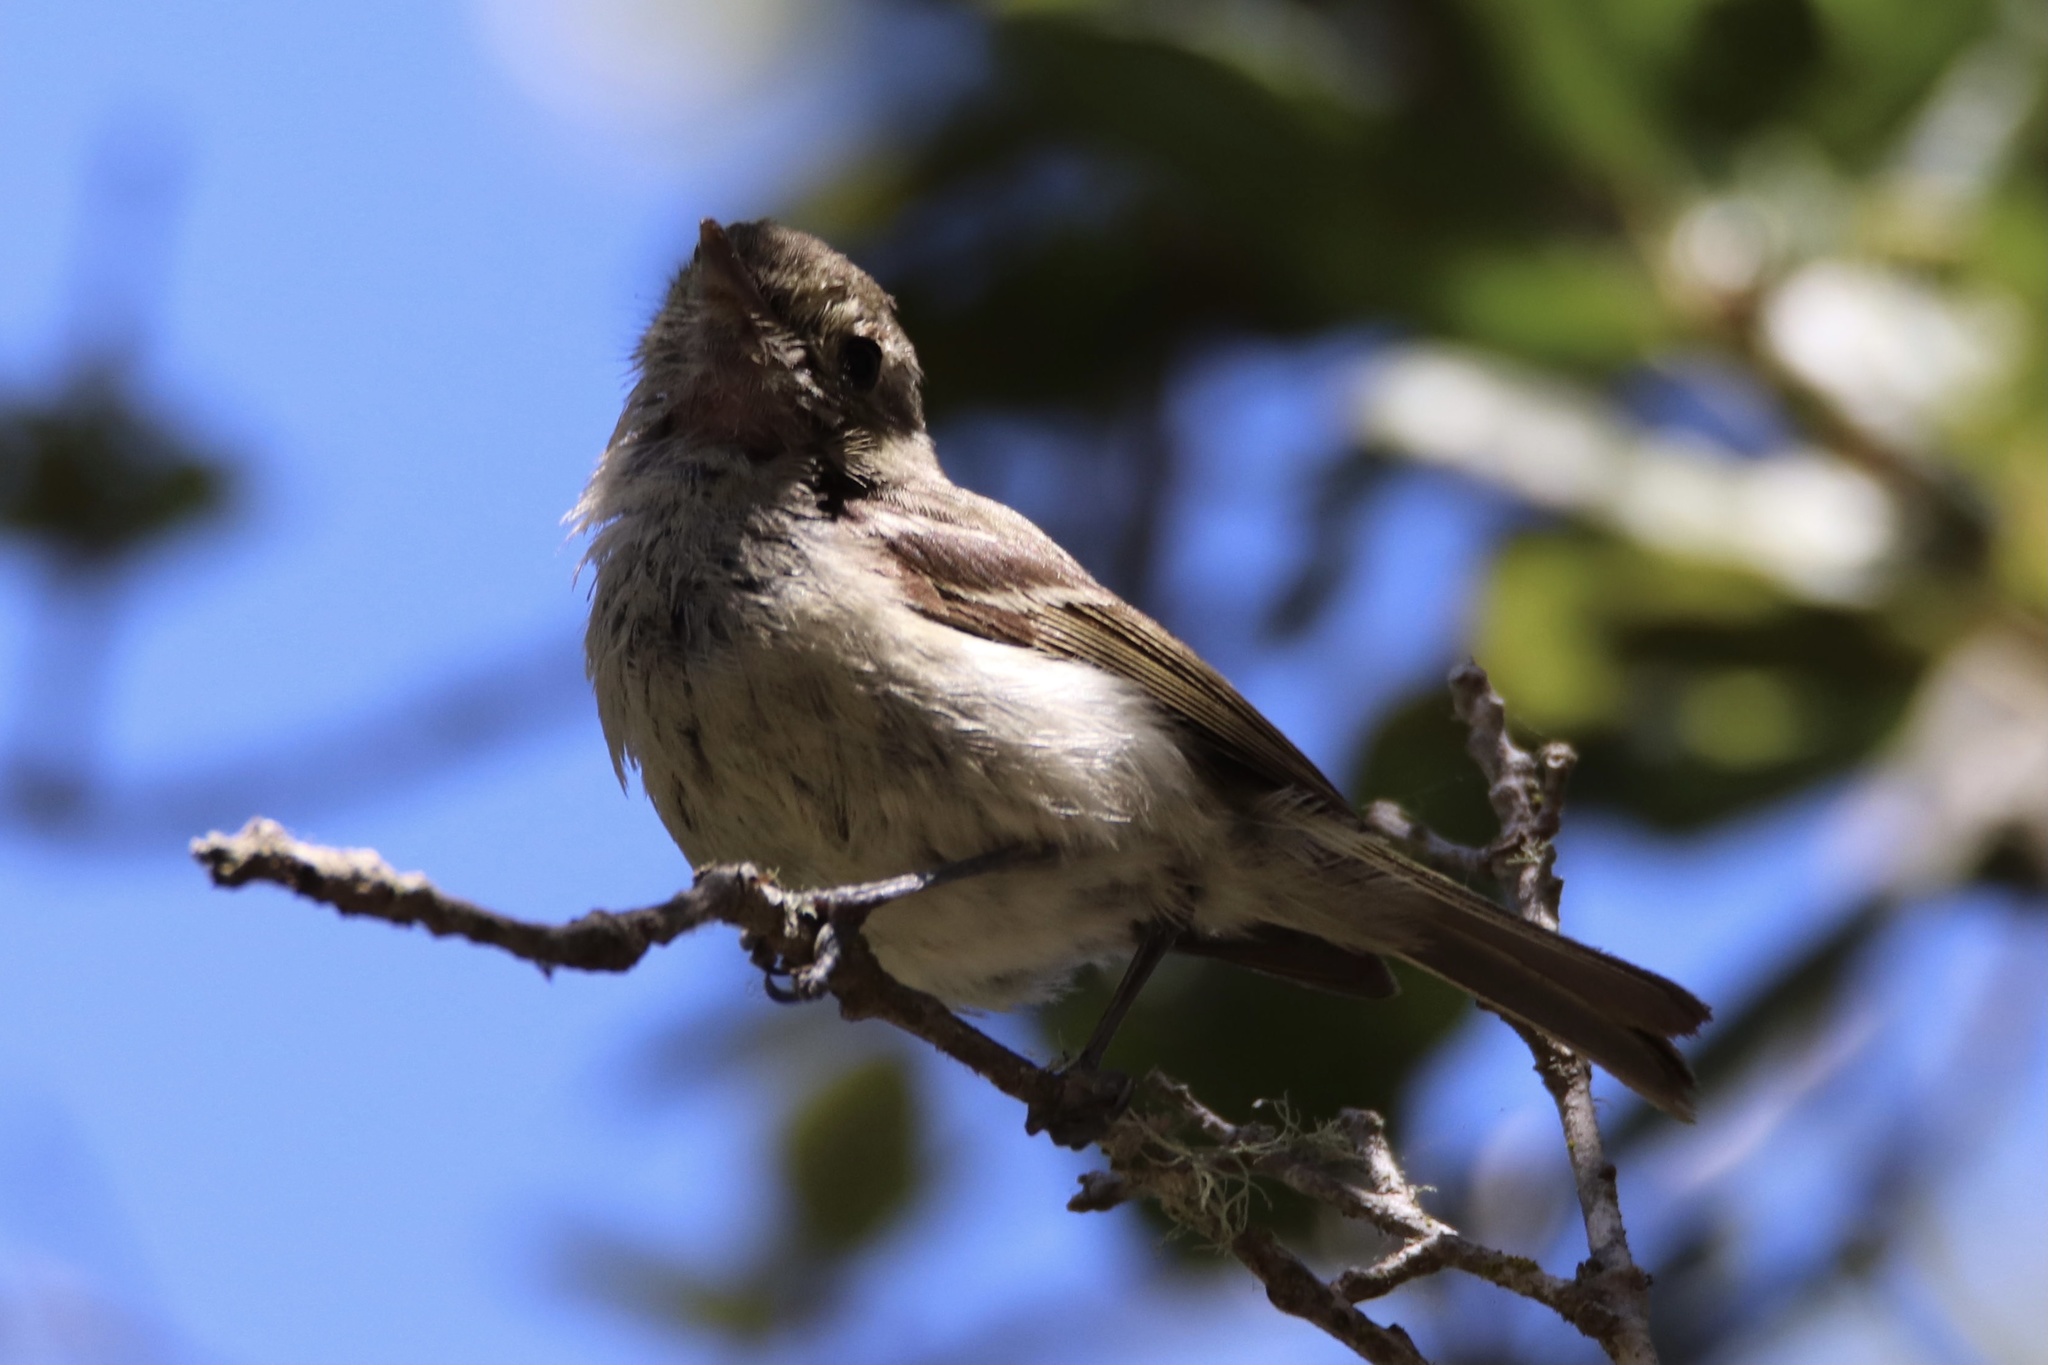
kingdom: Animalia
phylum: Chordata
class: Aves
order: Passeriformes
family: Vireonidae
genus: Vireo
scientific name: Vireo huttoni
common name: Hutton's vireo
